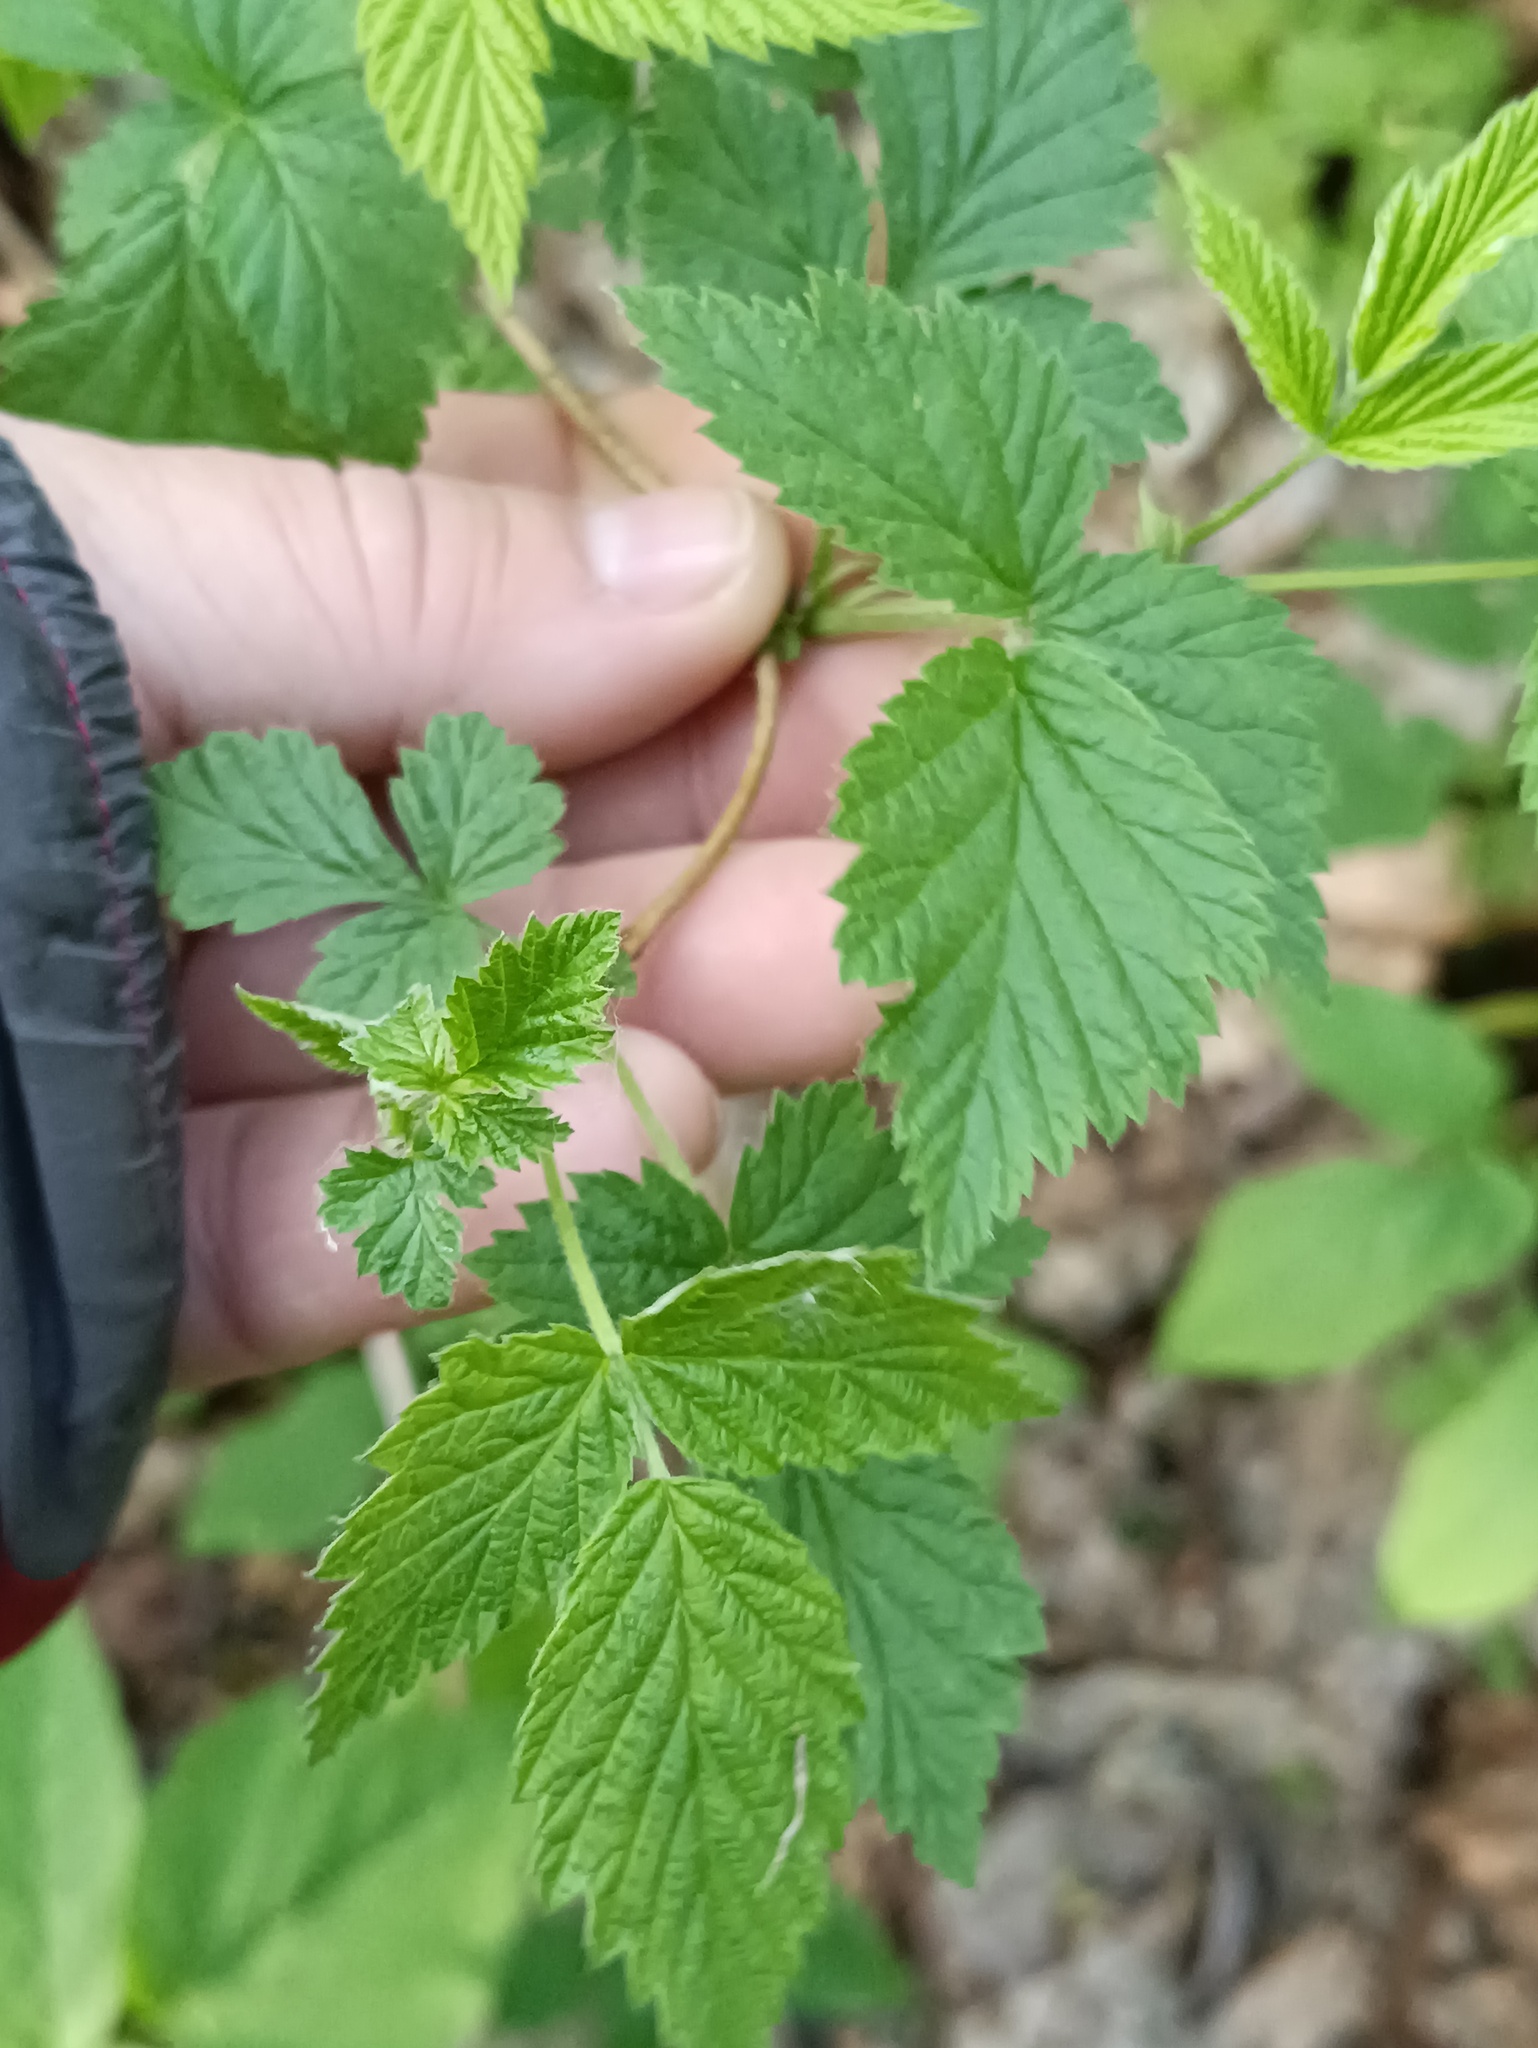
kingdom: Plantae
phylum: Tracheophyta
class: Magnoliopsida
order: Rosales
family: Rosaceae
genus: Rubus
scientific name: Rubus idaeus
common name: Raspberry
